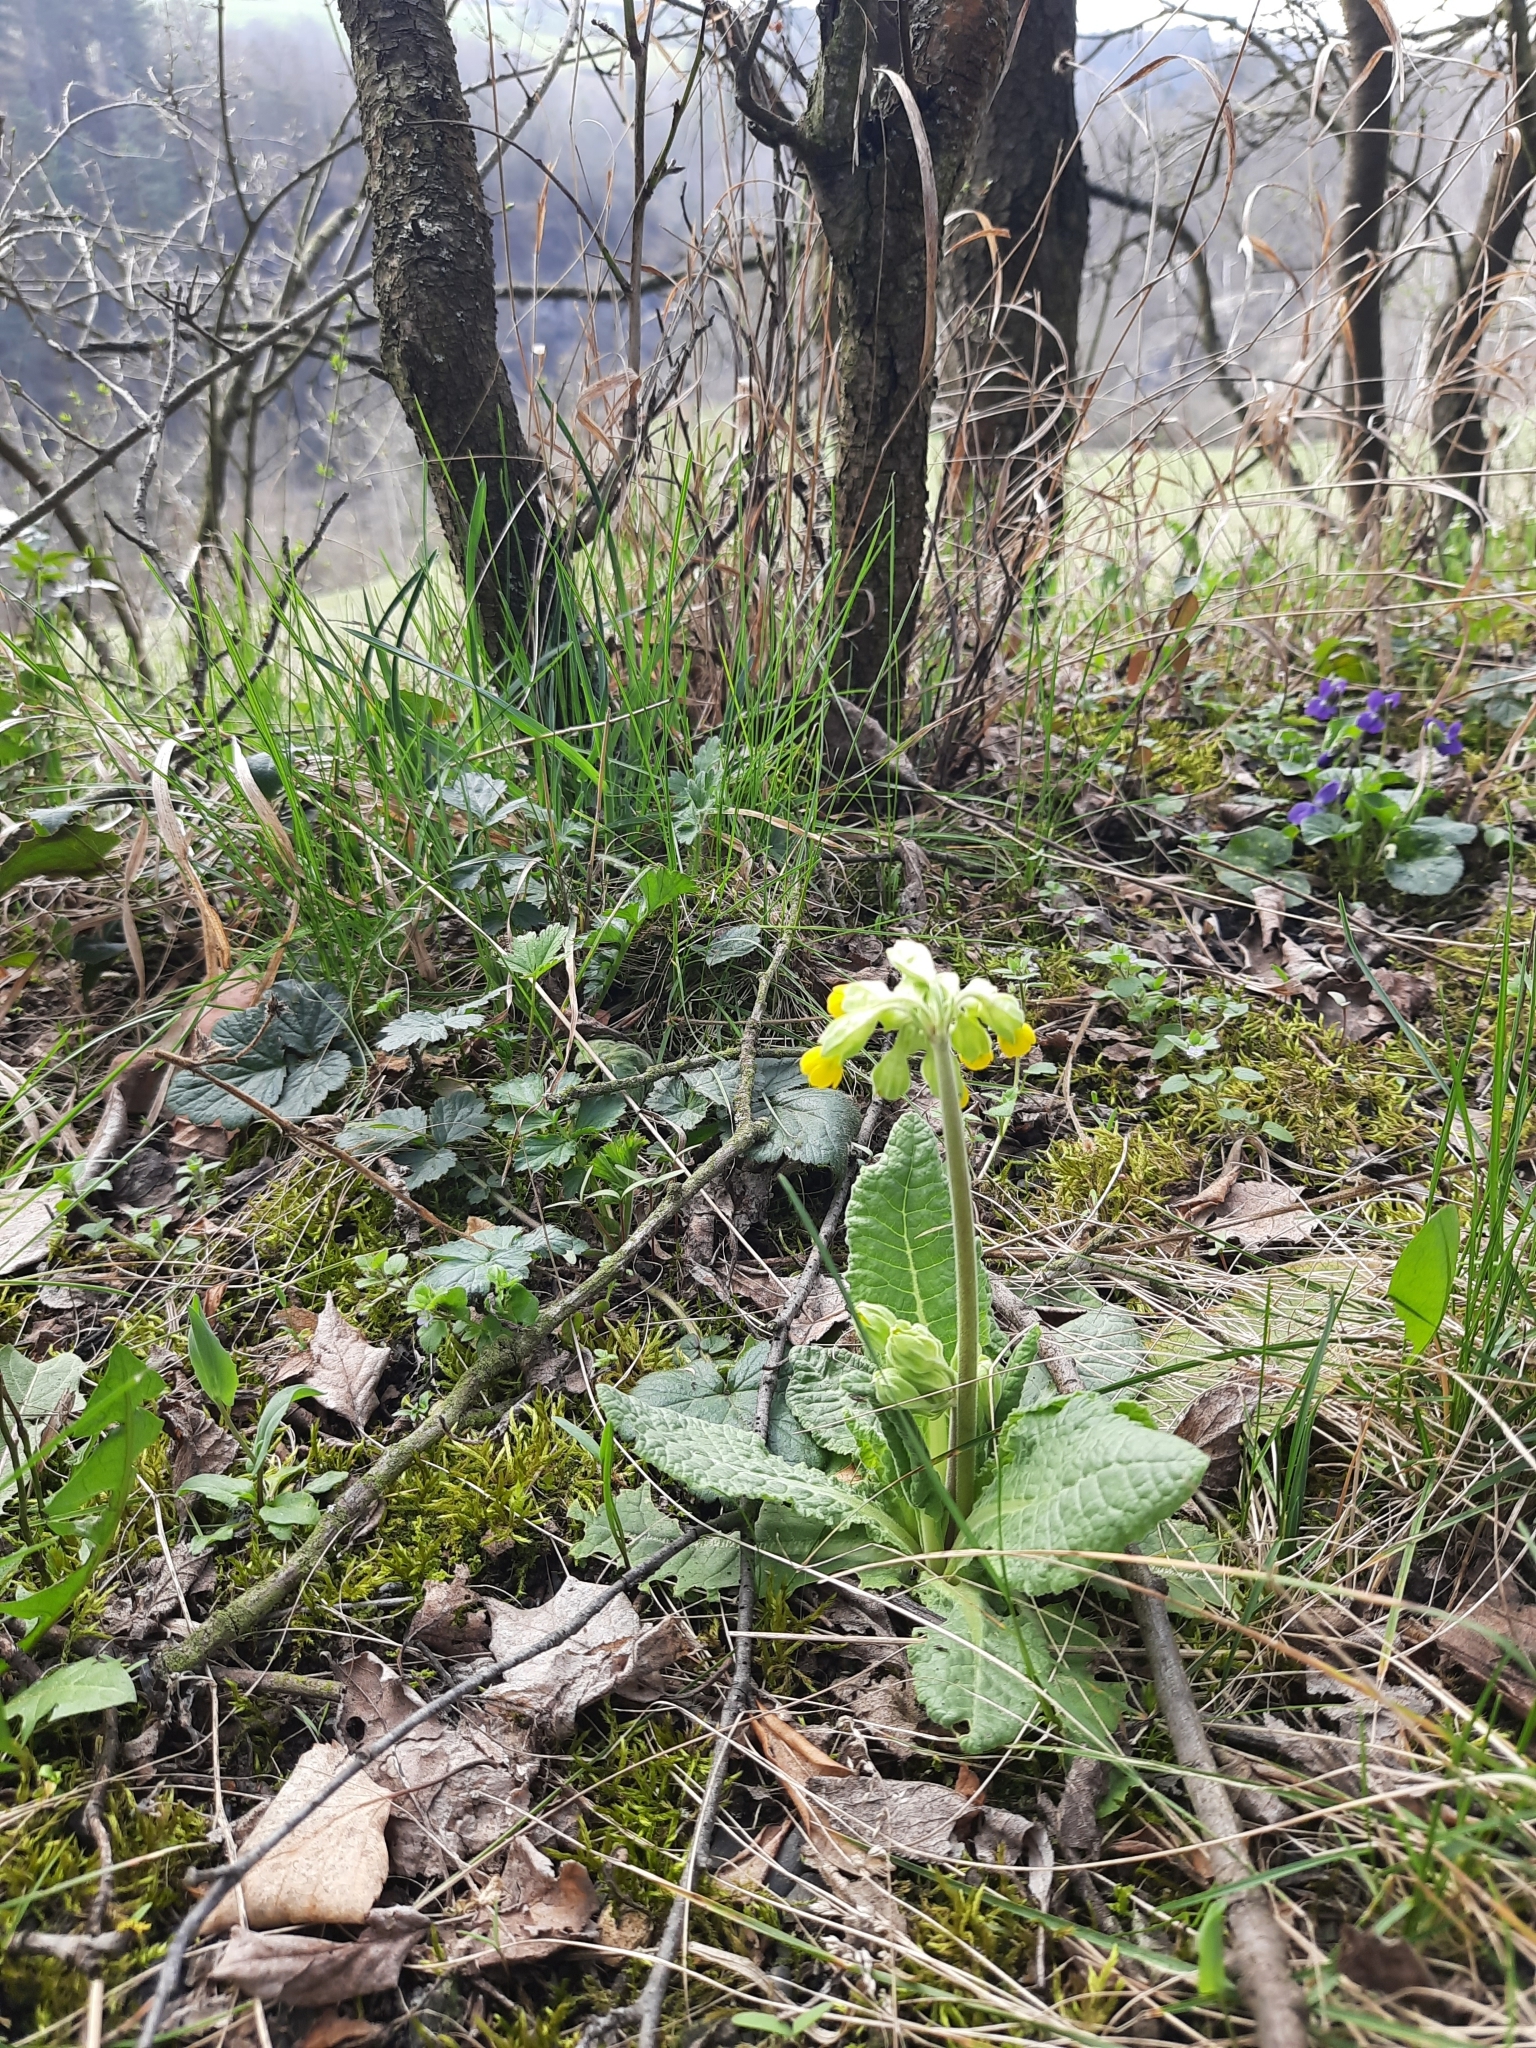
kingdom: Plantae
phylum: Tracheophyta
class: Magnoliopsida
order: Ericales
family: Primulaceae
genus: Primula
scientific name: Primula veris
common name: Cowslip
